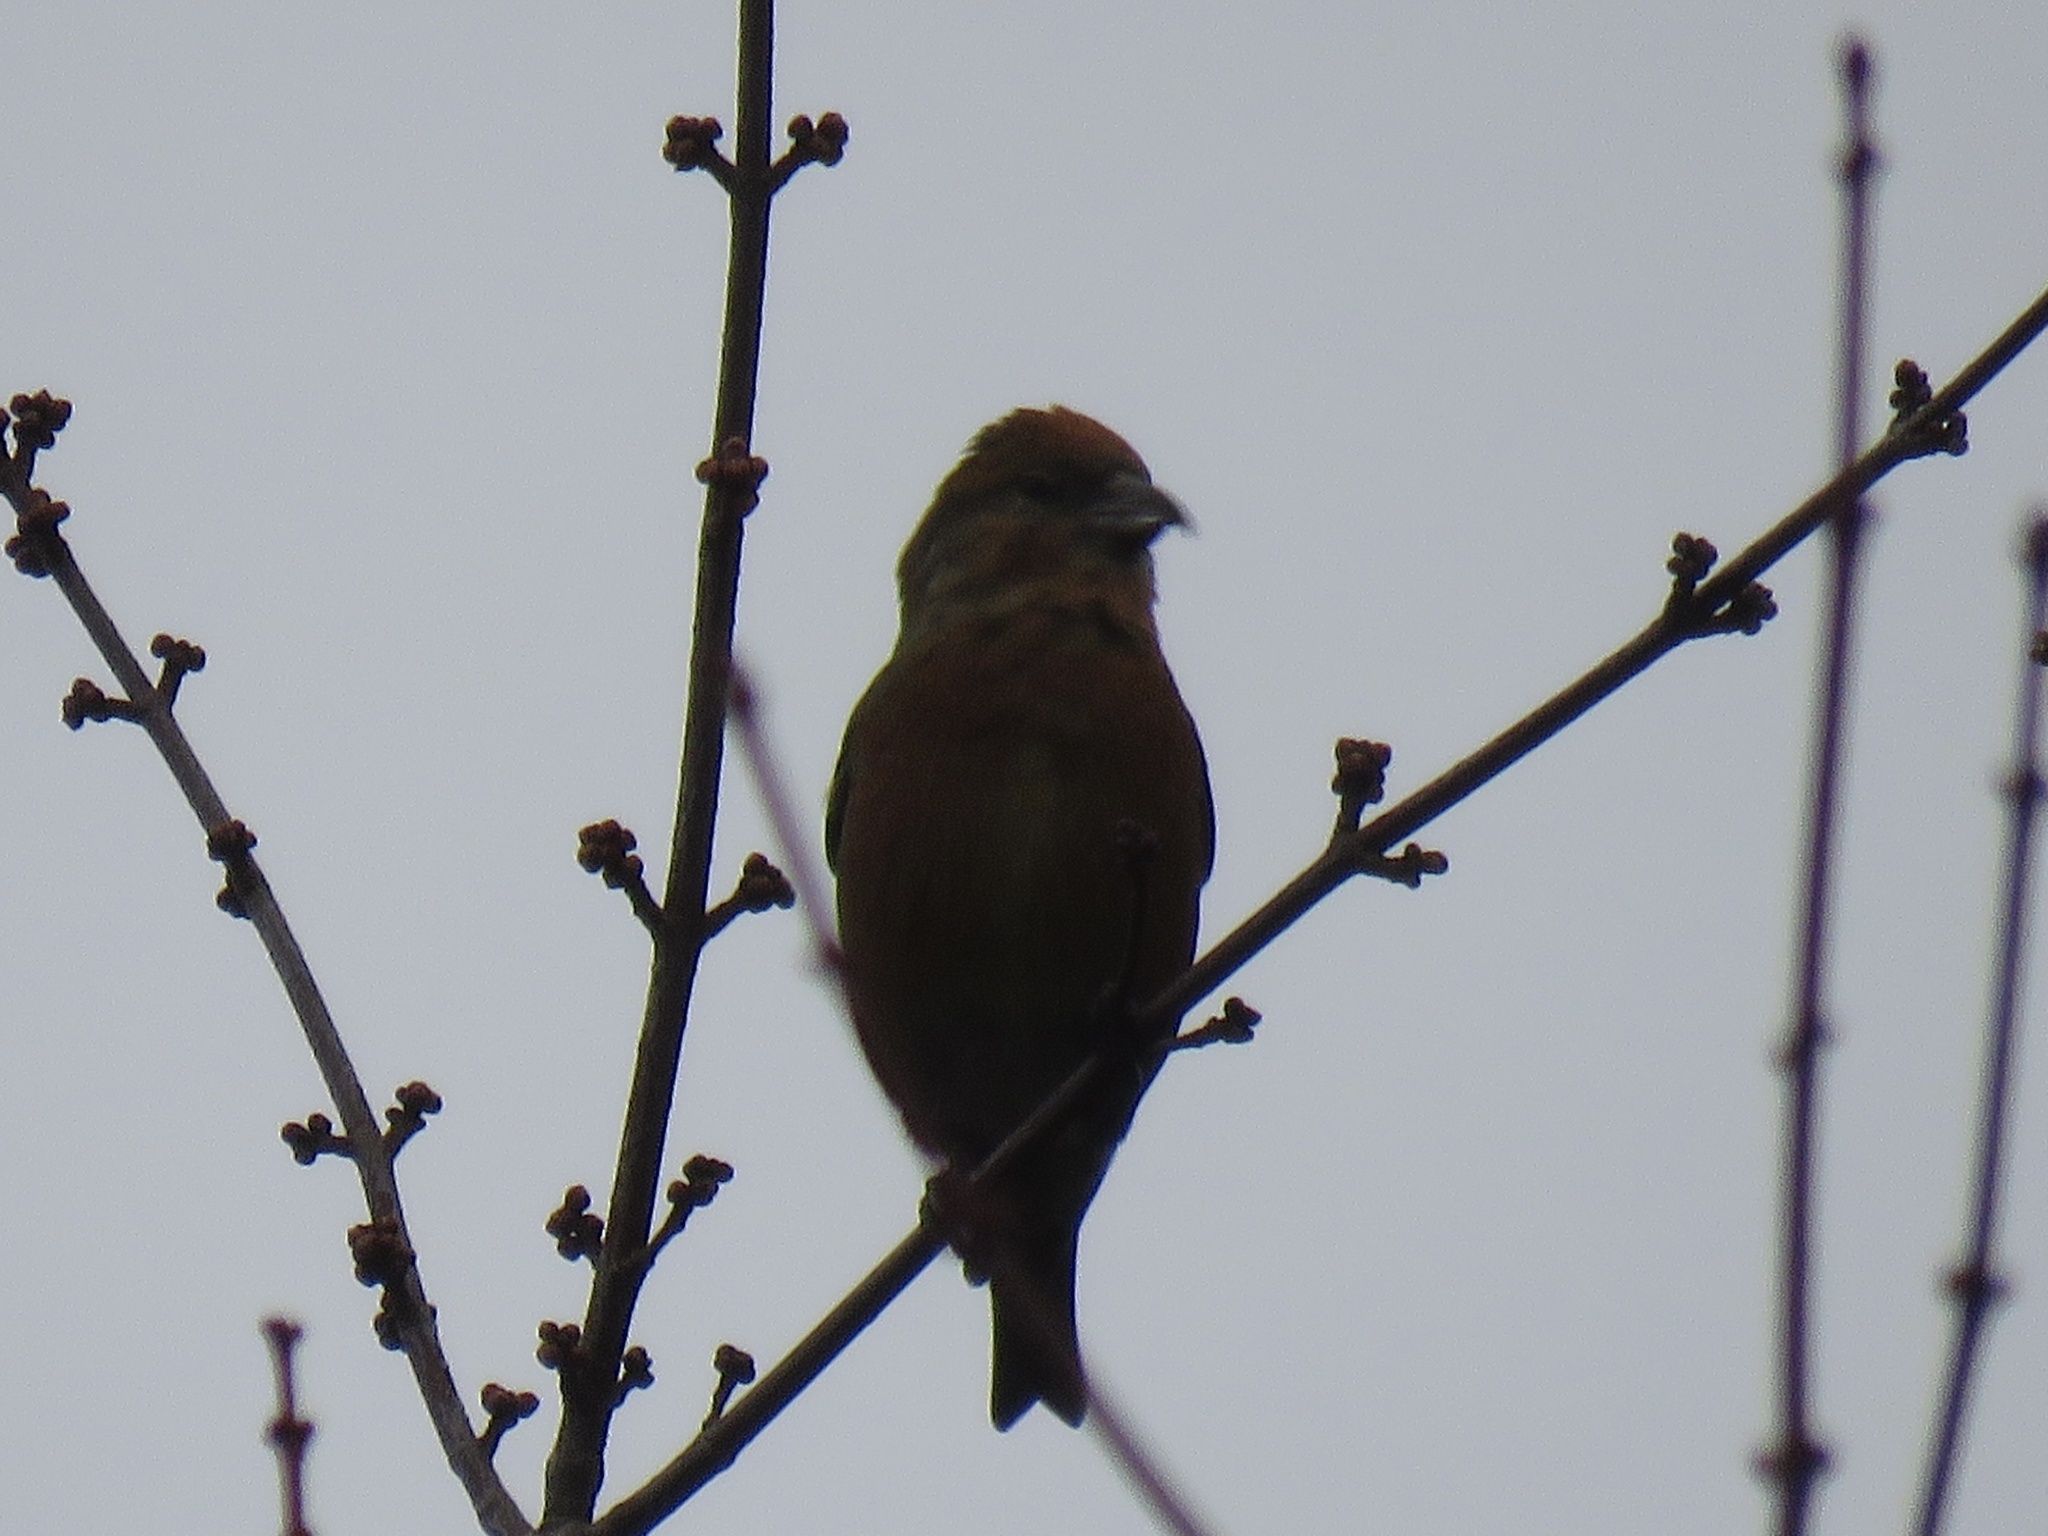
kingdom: Animalia
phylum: Chordata
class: Aves
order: Passeriformes
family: Fringillidae
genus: Loxia
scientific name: Loxia curvirostra
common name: Red crossbill
